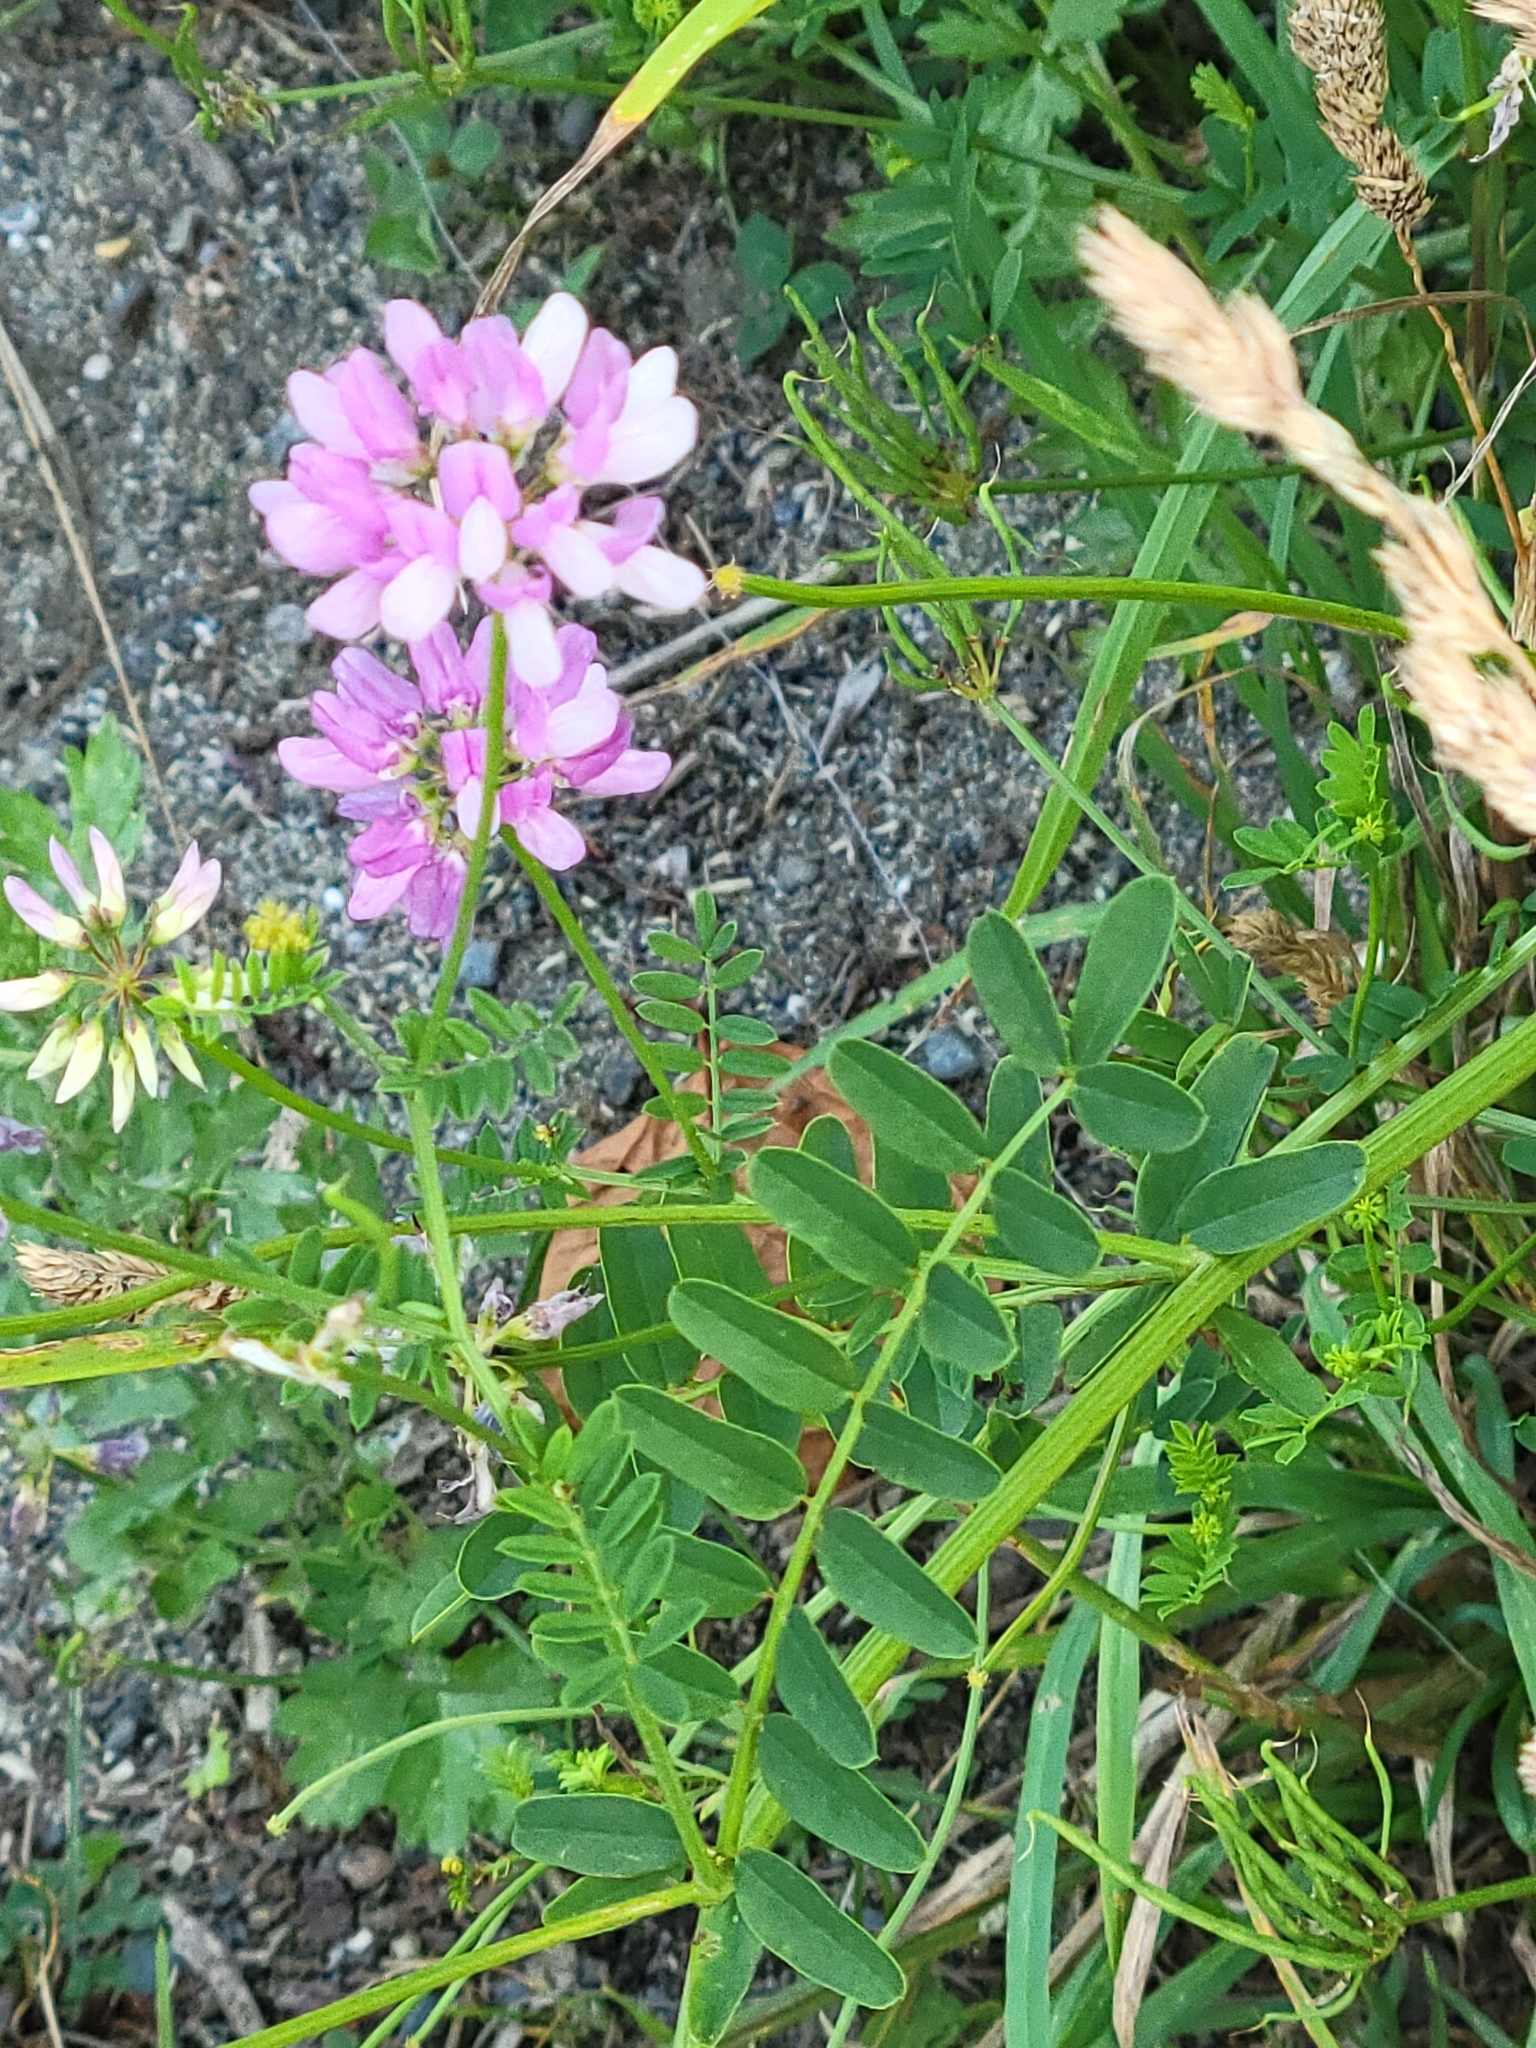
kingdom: Plantae
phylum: Tracheophyta
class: Magnoliopsida
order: Fabales
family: Fabaceae
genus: Coronilla
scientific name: Coronilla varia
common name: Crownvetch
